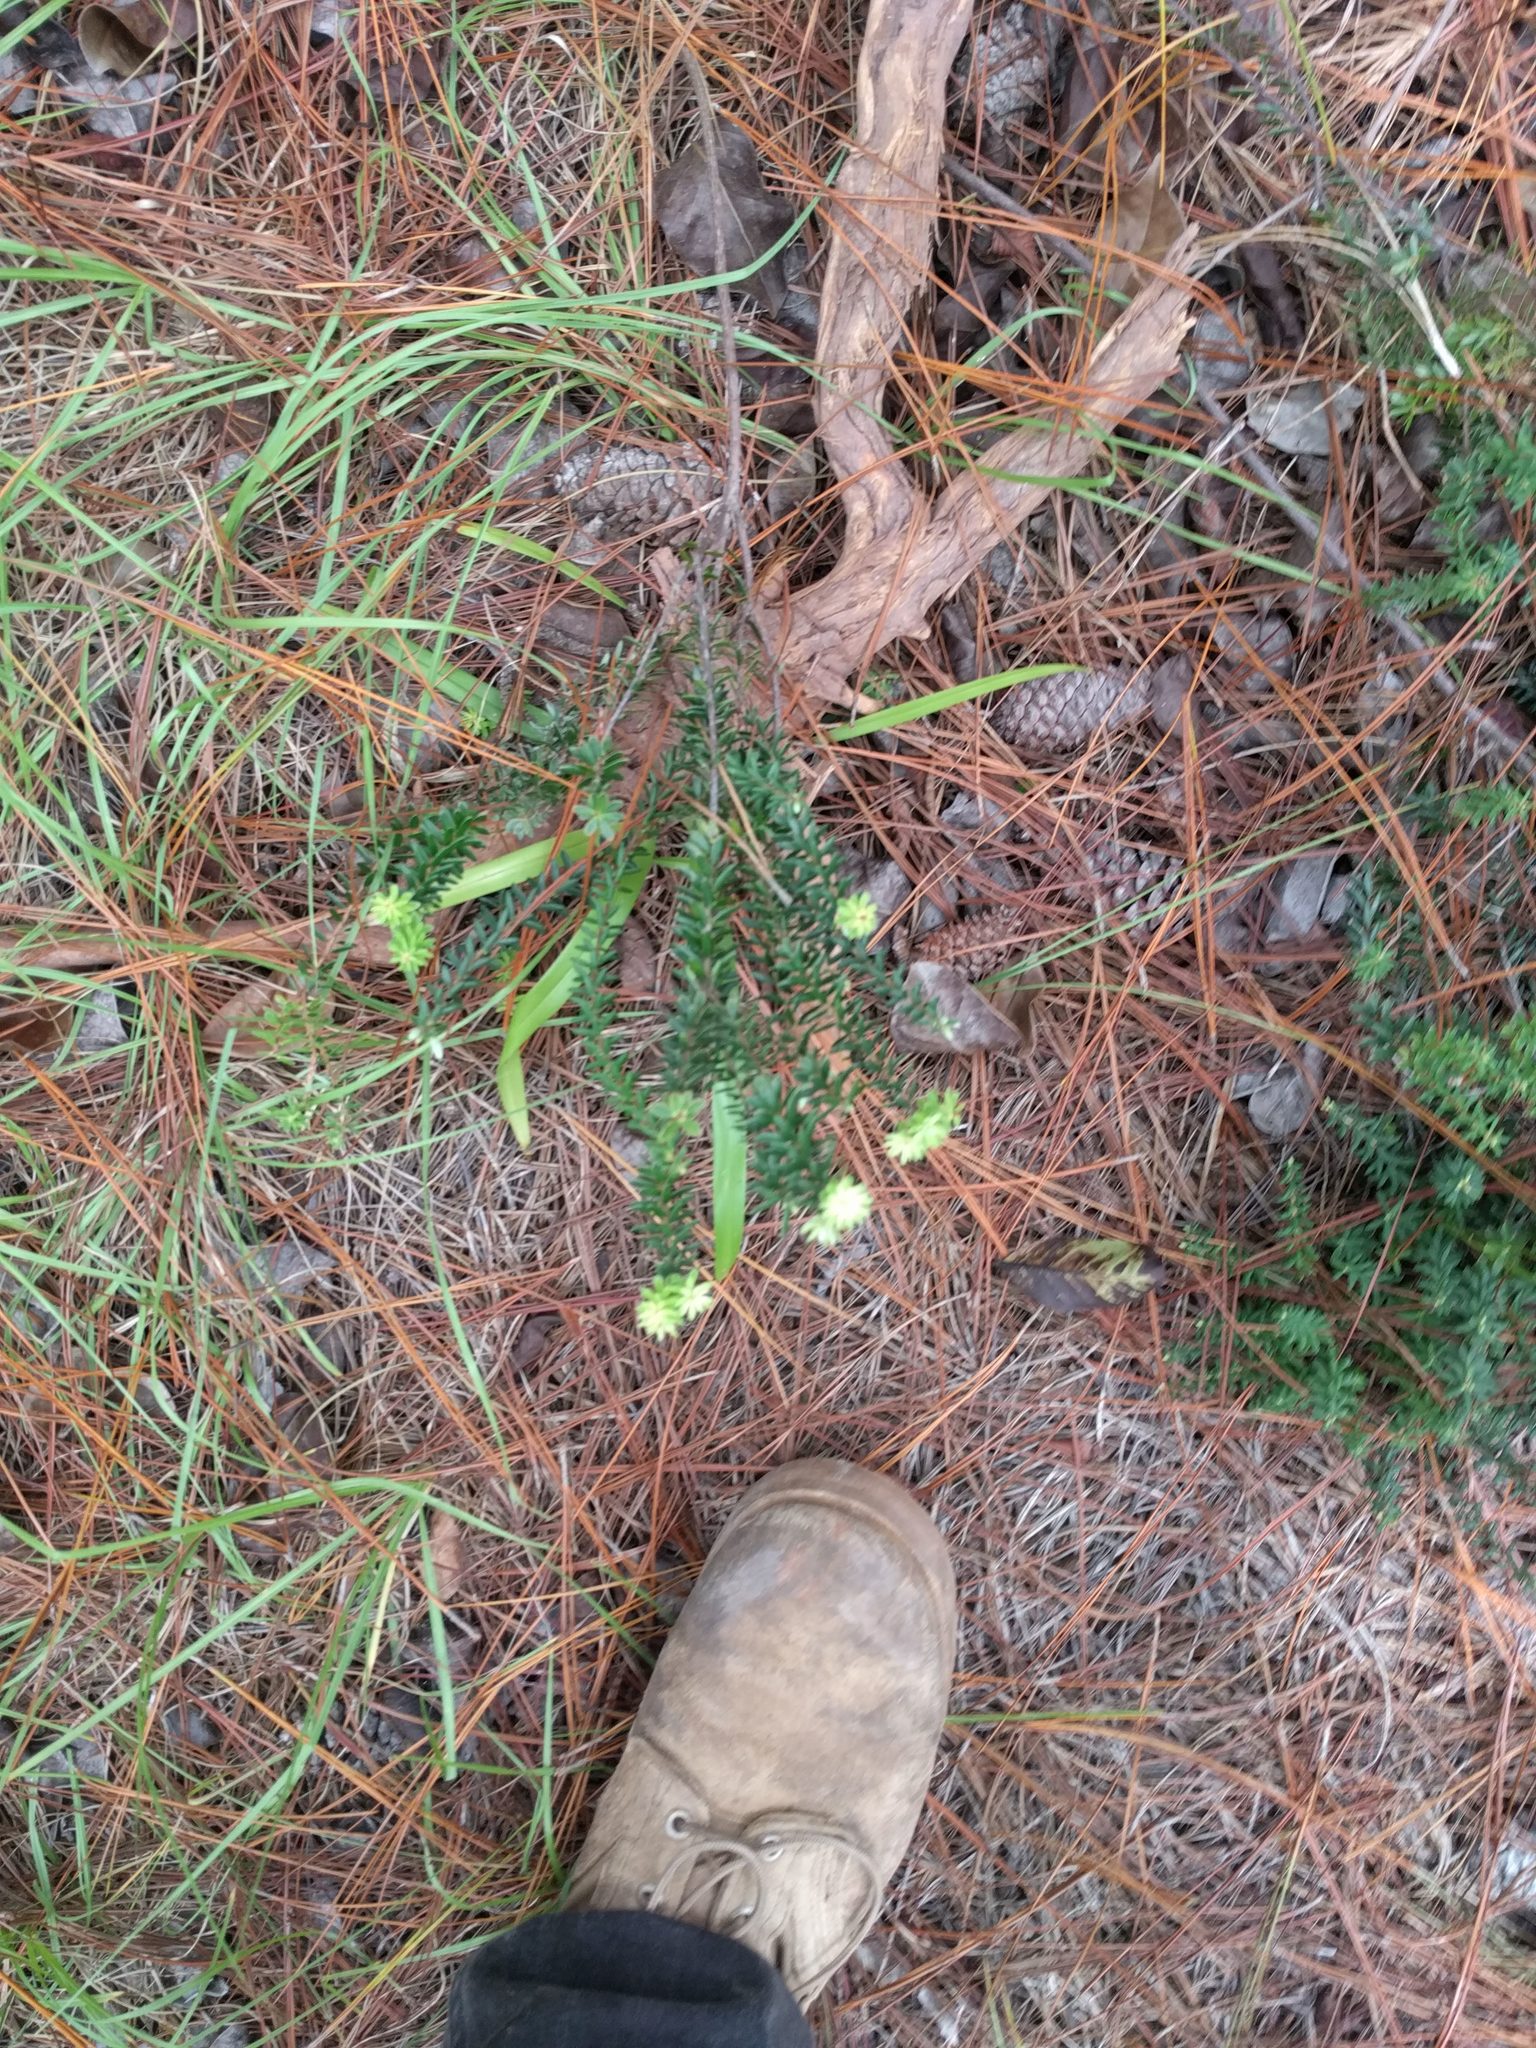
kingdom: Plantae
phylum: Tracheophyta
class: Magnoliopsida
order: Ericales
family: Ericaceae
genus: Leptecophylla
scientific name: Leptecophylla tameiameiae
